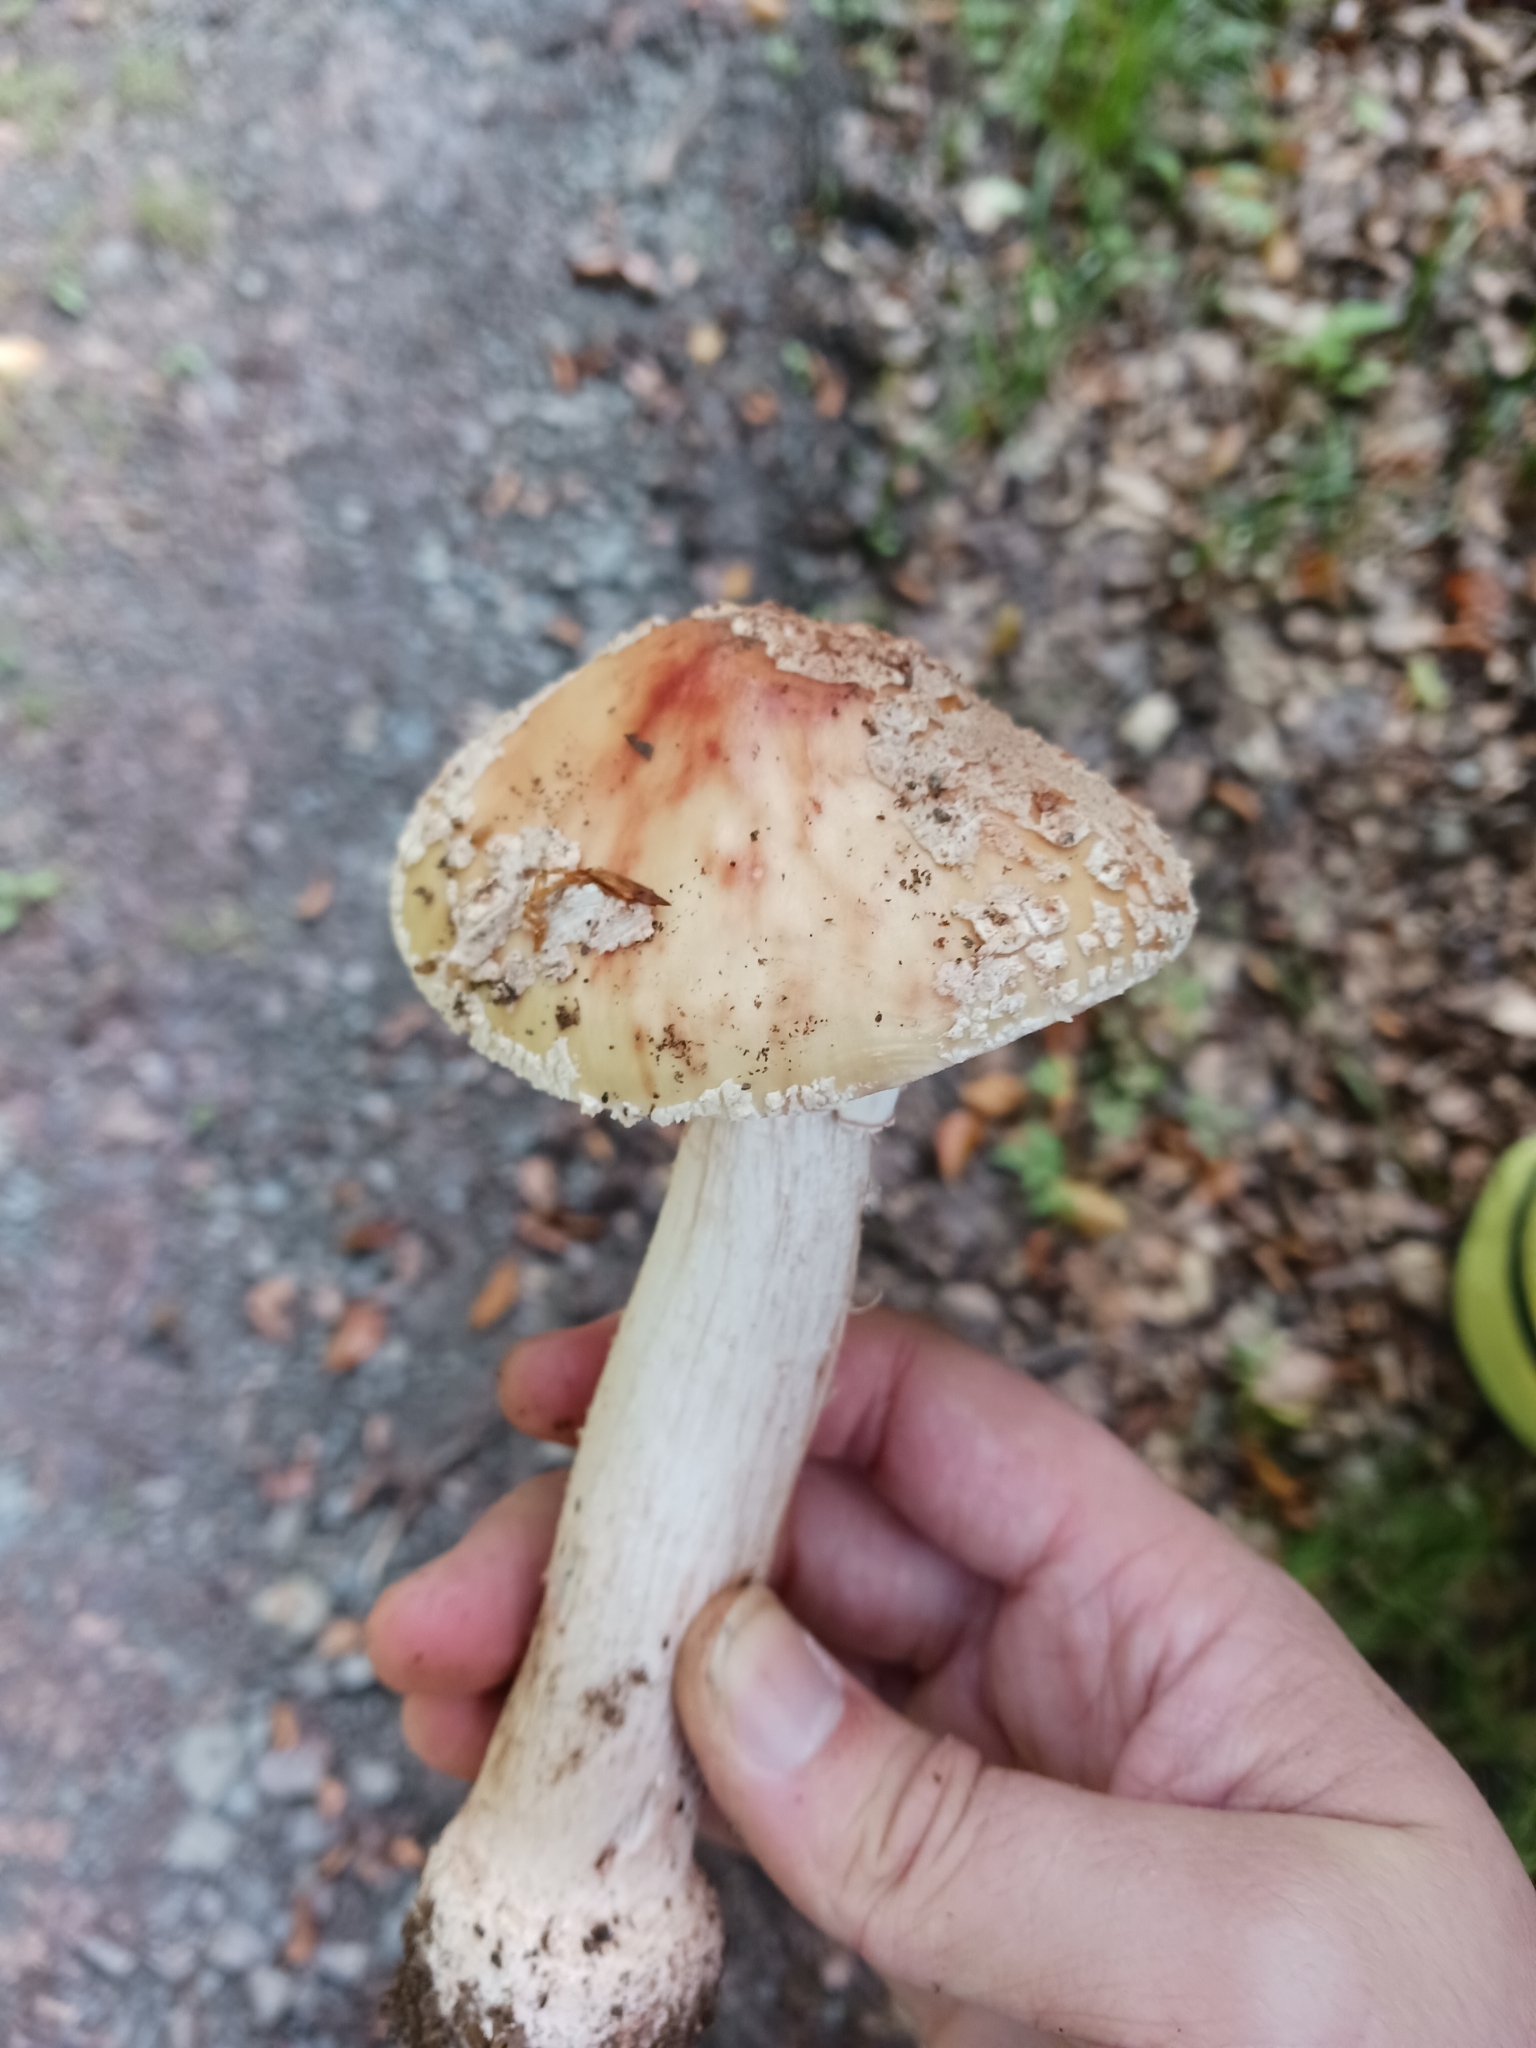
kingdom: Fungi
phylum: Basidiomycota
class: Agaricomycetes
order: Agaricales
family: Amanitaceae
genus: Amanita
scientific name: Amanita rubescens
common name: Blusher
